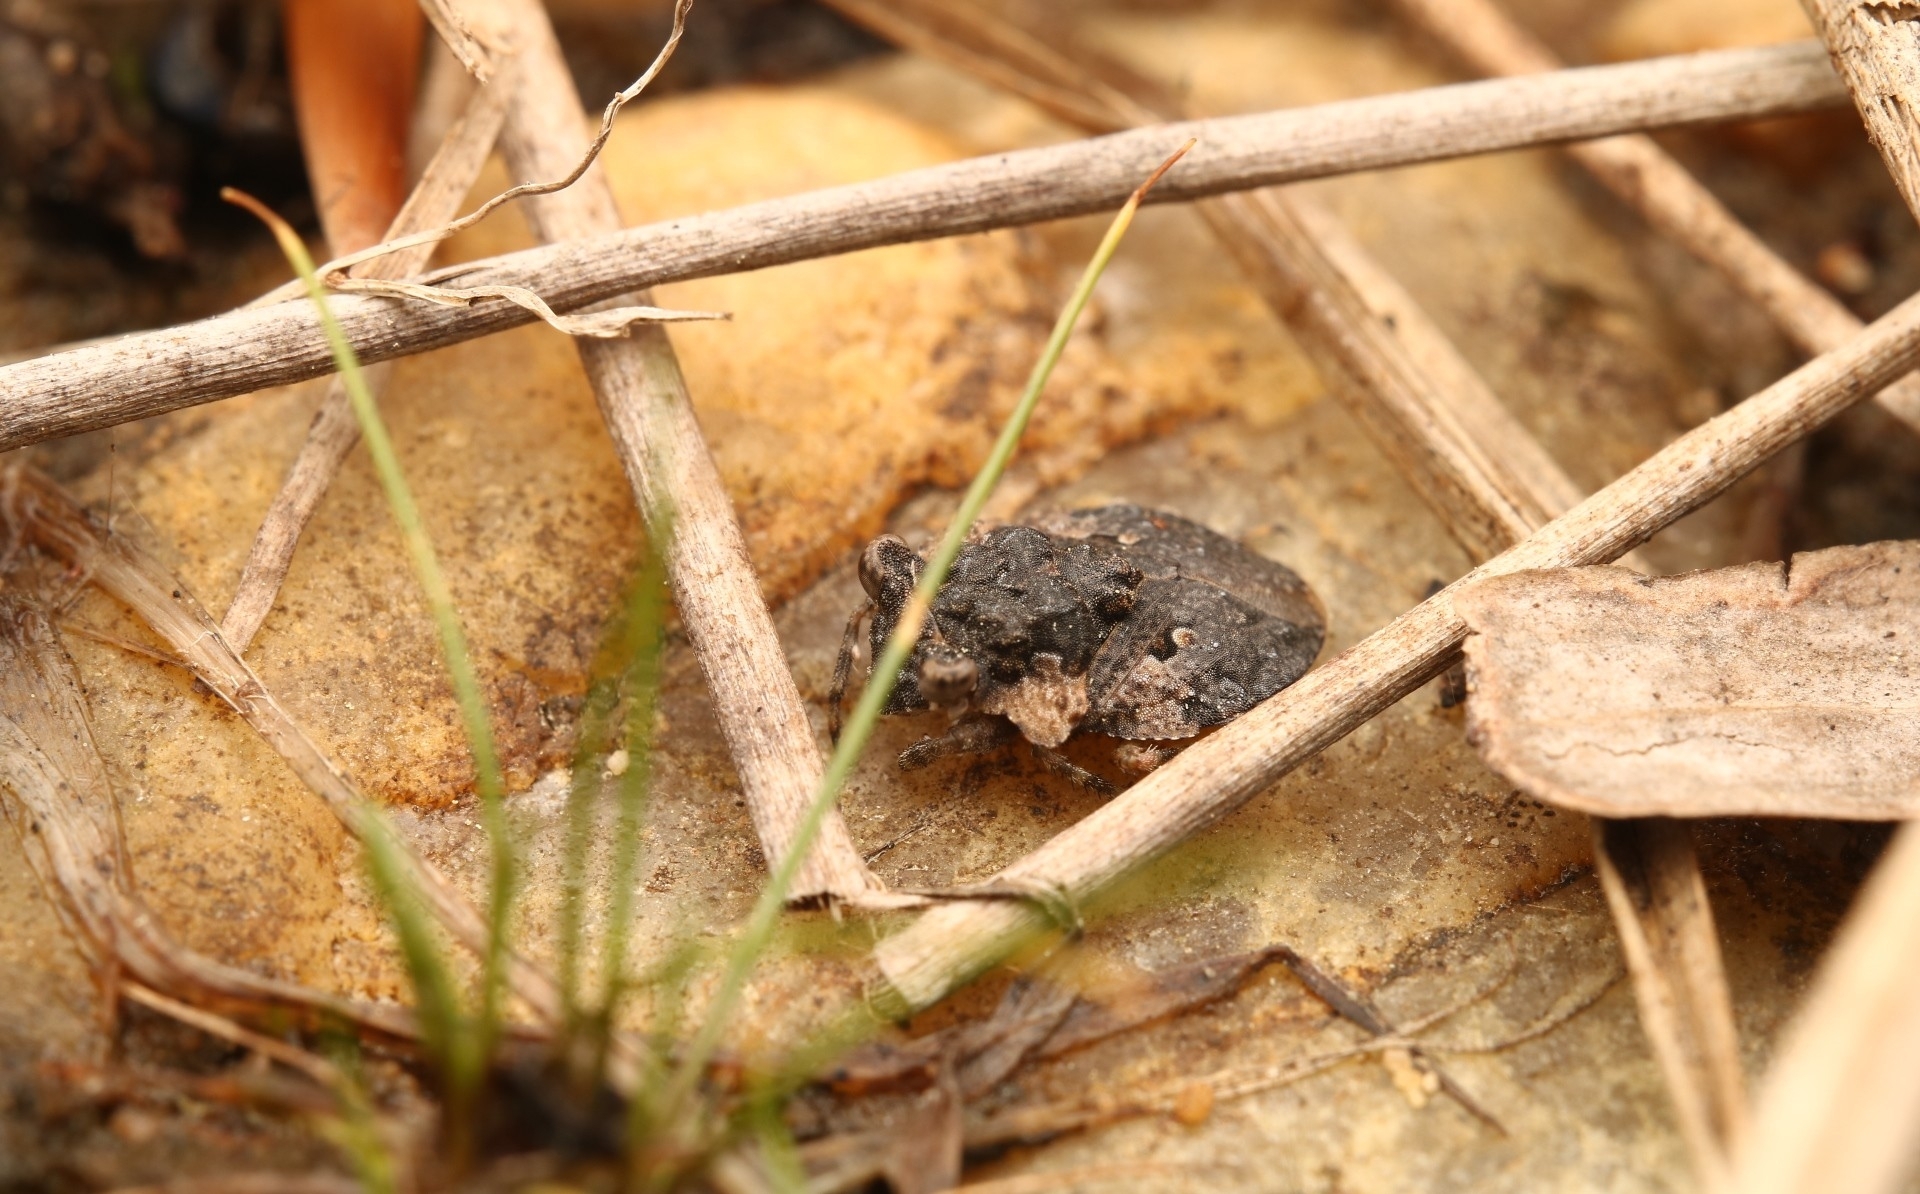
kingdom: Animalia
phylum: Arthropoda
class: Insecta
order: Hemiptera
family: Gelastocoridae
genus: Gelastocoris
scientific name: Gelastocoris oculatus
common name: Toad bug
